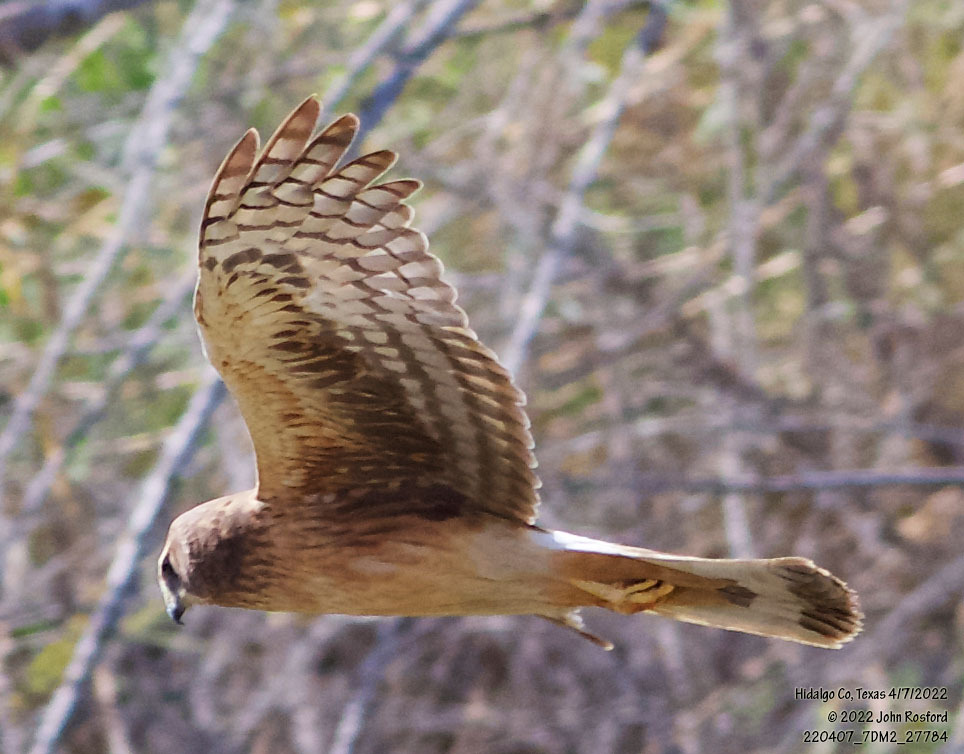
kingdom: Animalia
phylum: Chordata
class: Aves
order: Accipitriformes
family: Accipitridae
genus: Circus
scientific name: Circus cyaneus
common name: Hen harrier
